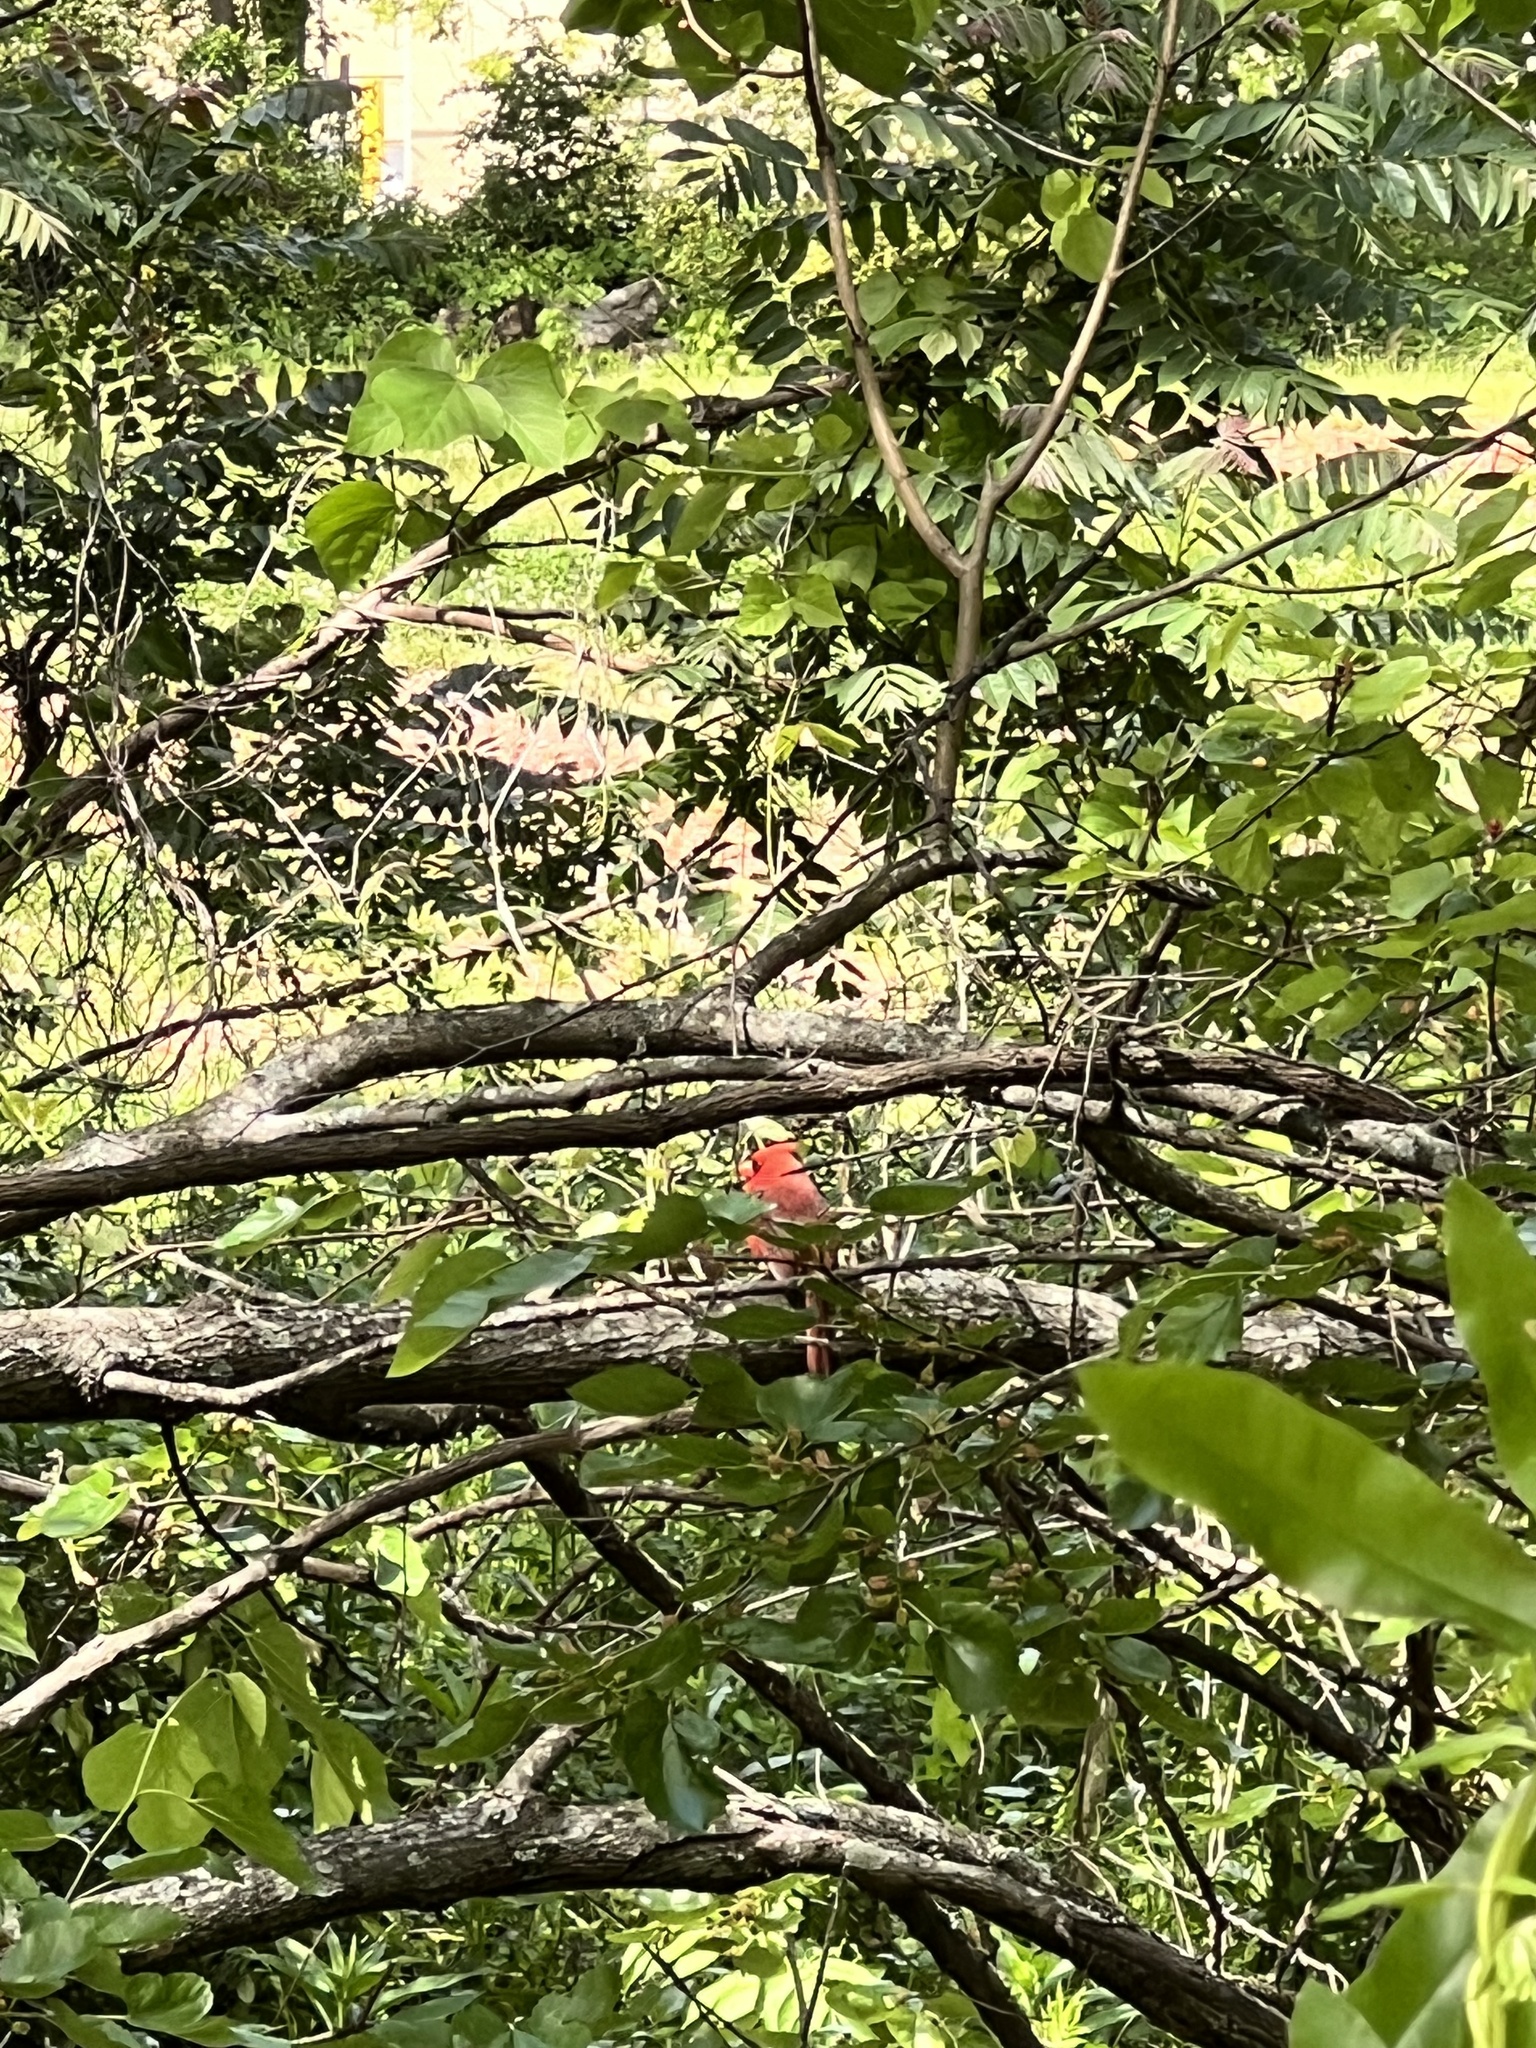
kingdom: Animalia
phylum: Chordata
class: Aves
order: Passeriformes
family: Cardinalidae
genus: Cardinalis
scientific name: Cardinalis cardinalis
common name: Northern cardinal
